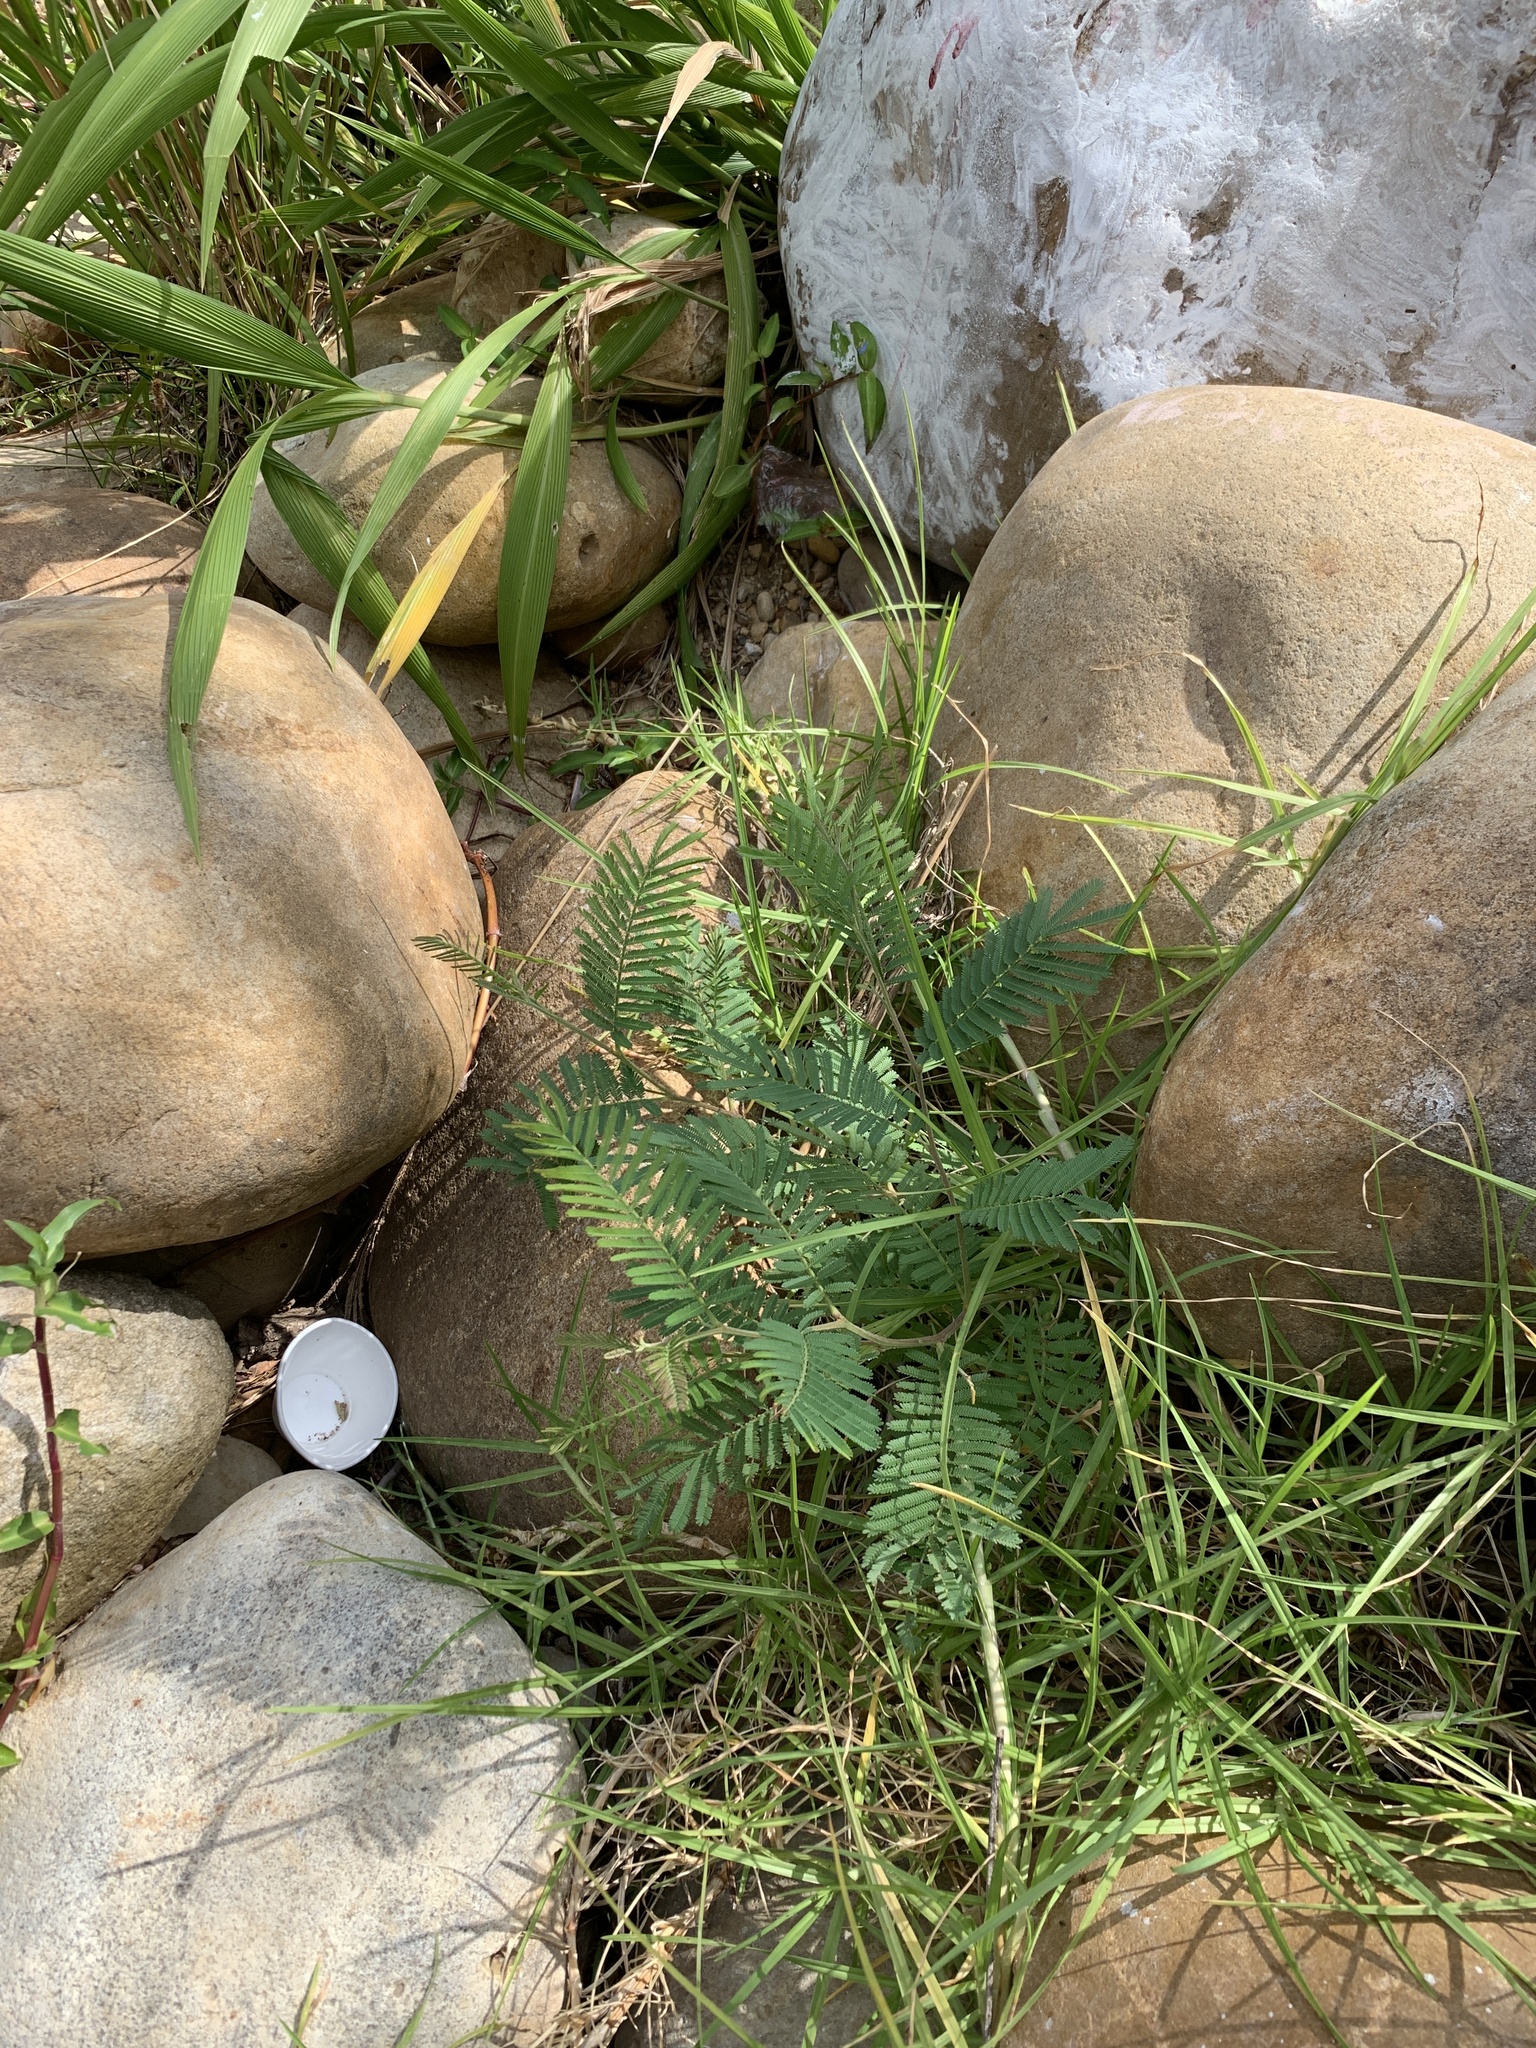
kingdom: Plantae
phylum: Tracheophyta
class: Magnoliopsida
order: Fabales
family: Fabaceae
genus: Acacia
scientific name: Acacia mearnsii
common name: Black wattle
